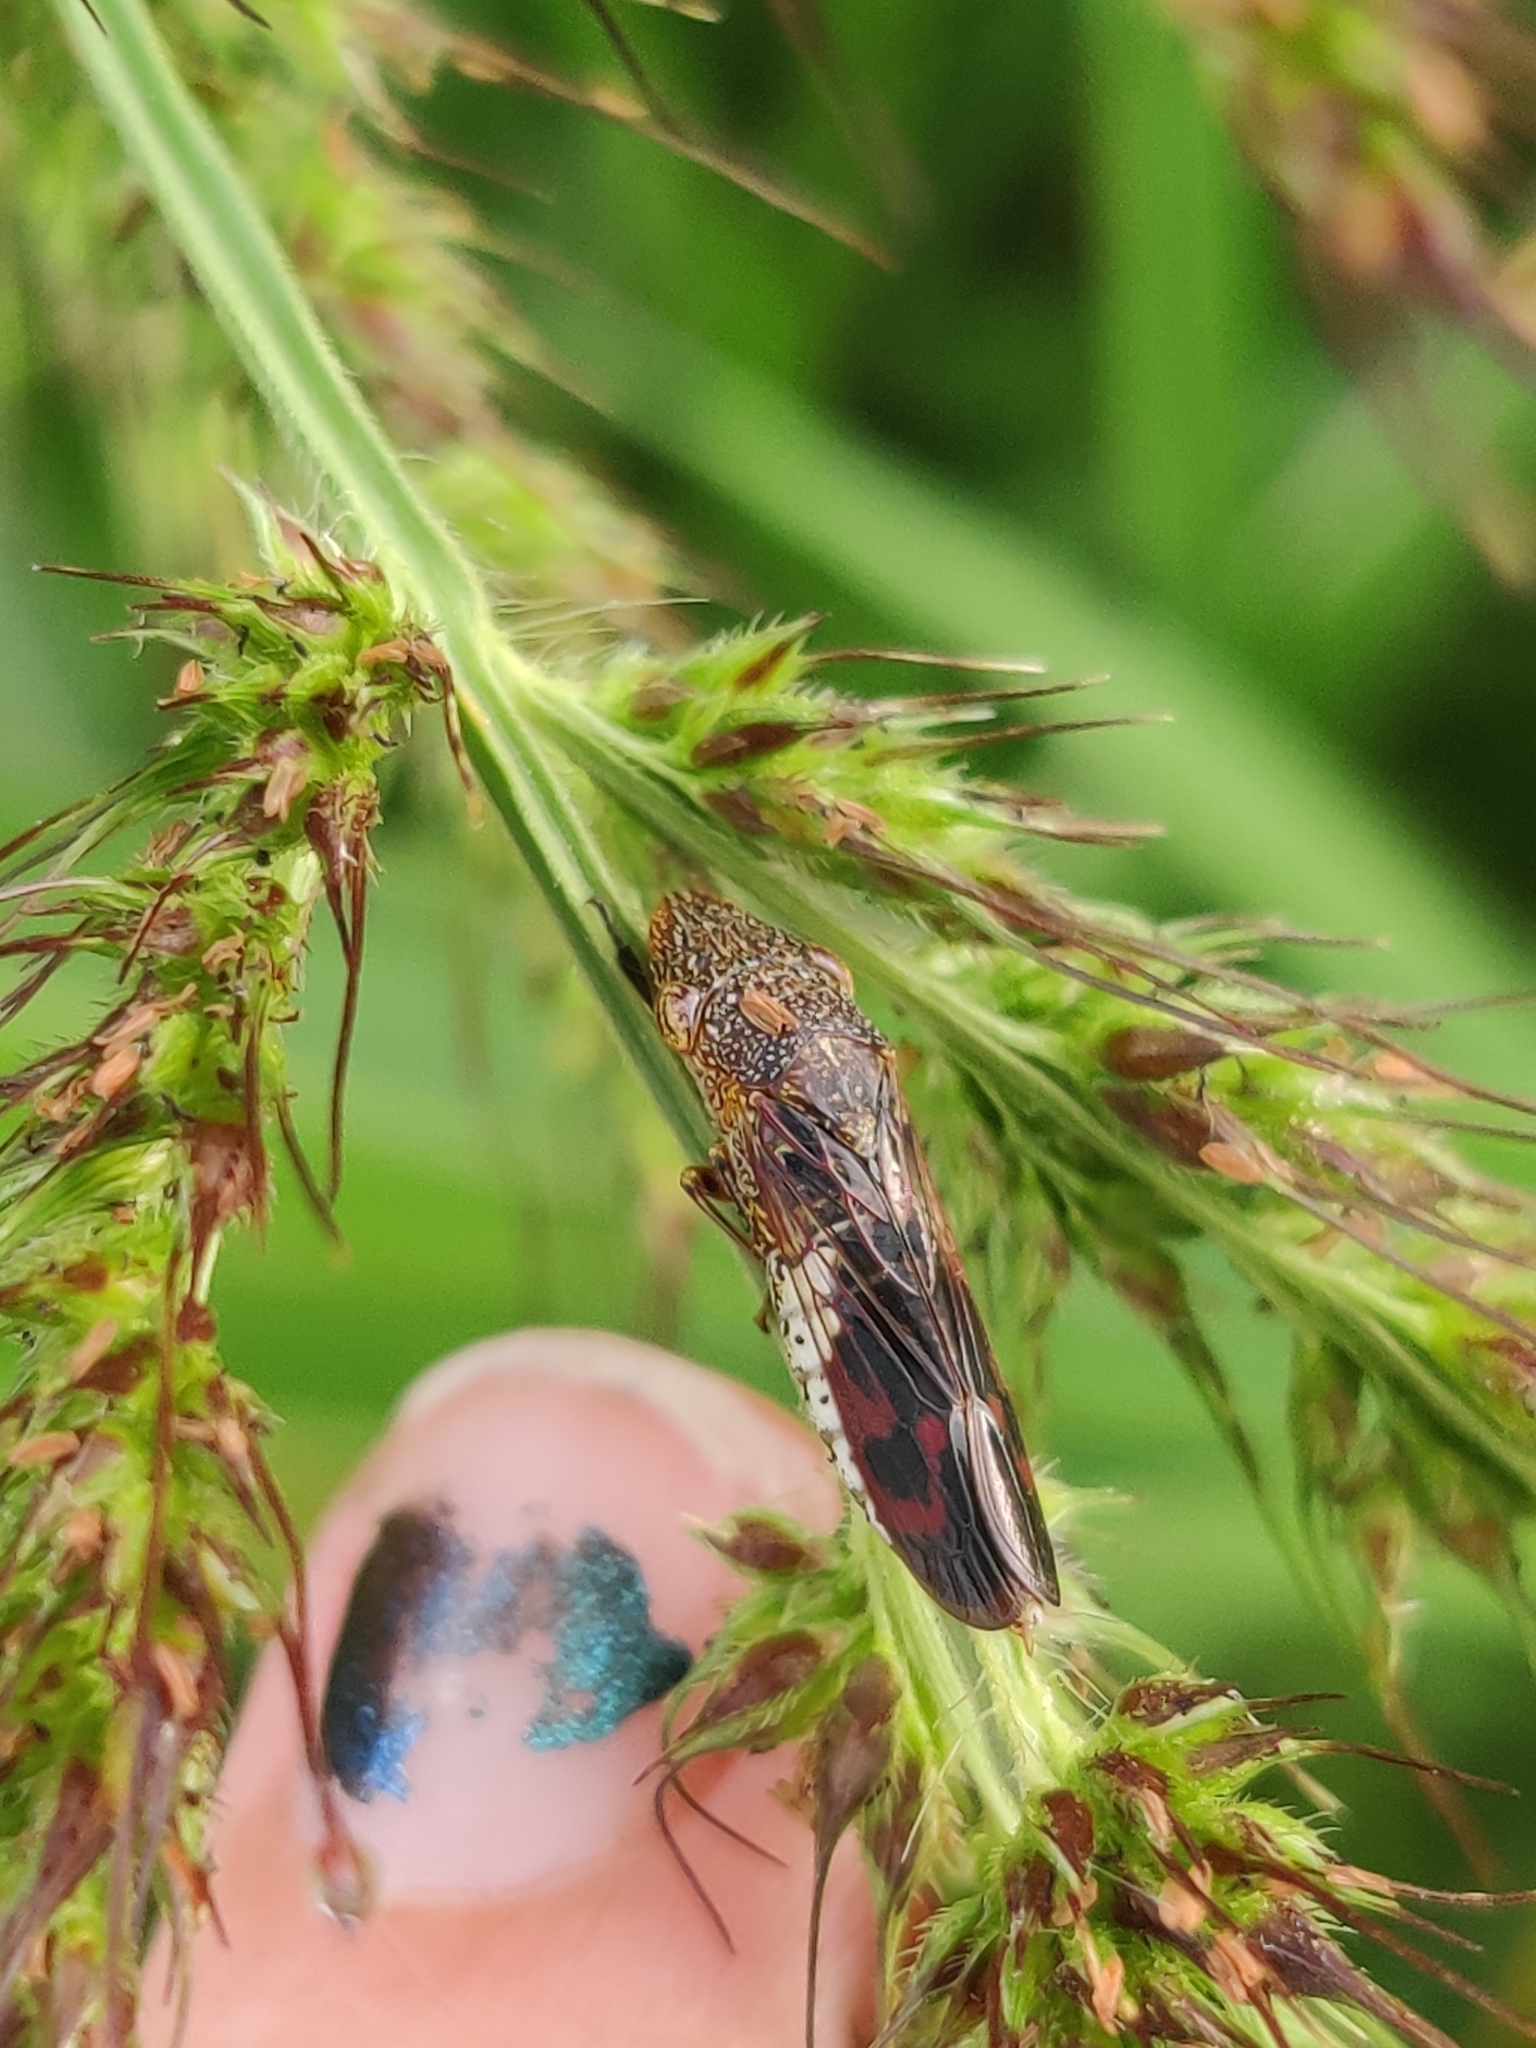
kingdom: Animalia
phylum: Arthropoda
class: Insecta
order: Hemiptera
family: Cicadellidae
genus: Homalodisca
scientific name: Homalodisca vitripennis
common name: Glassy-winged sharpshooter
